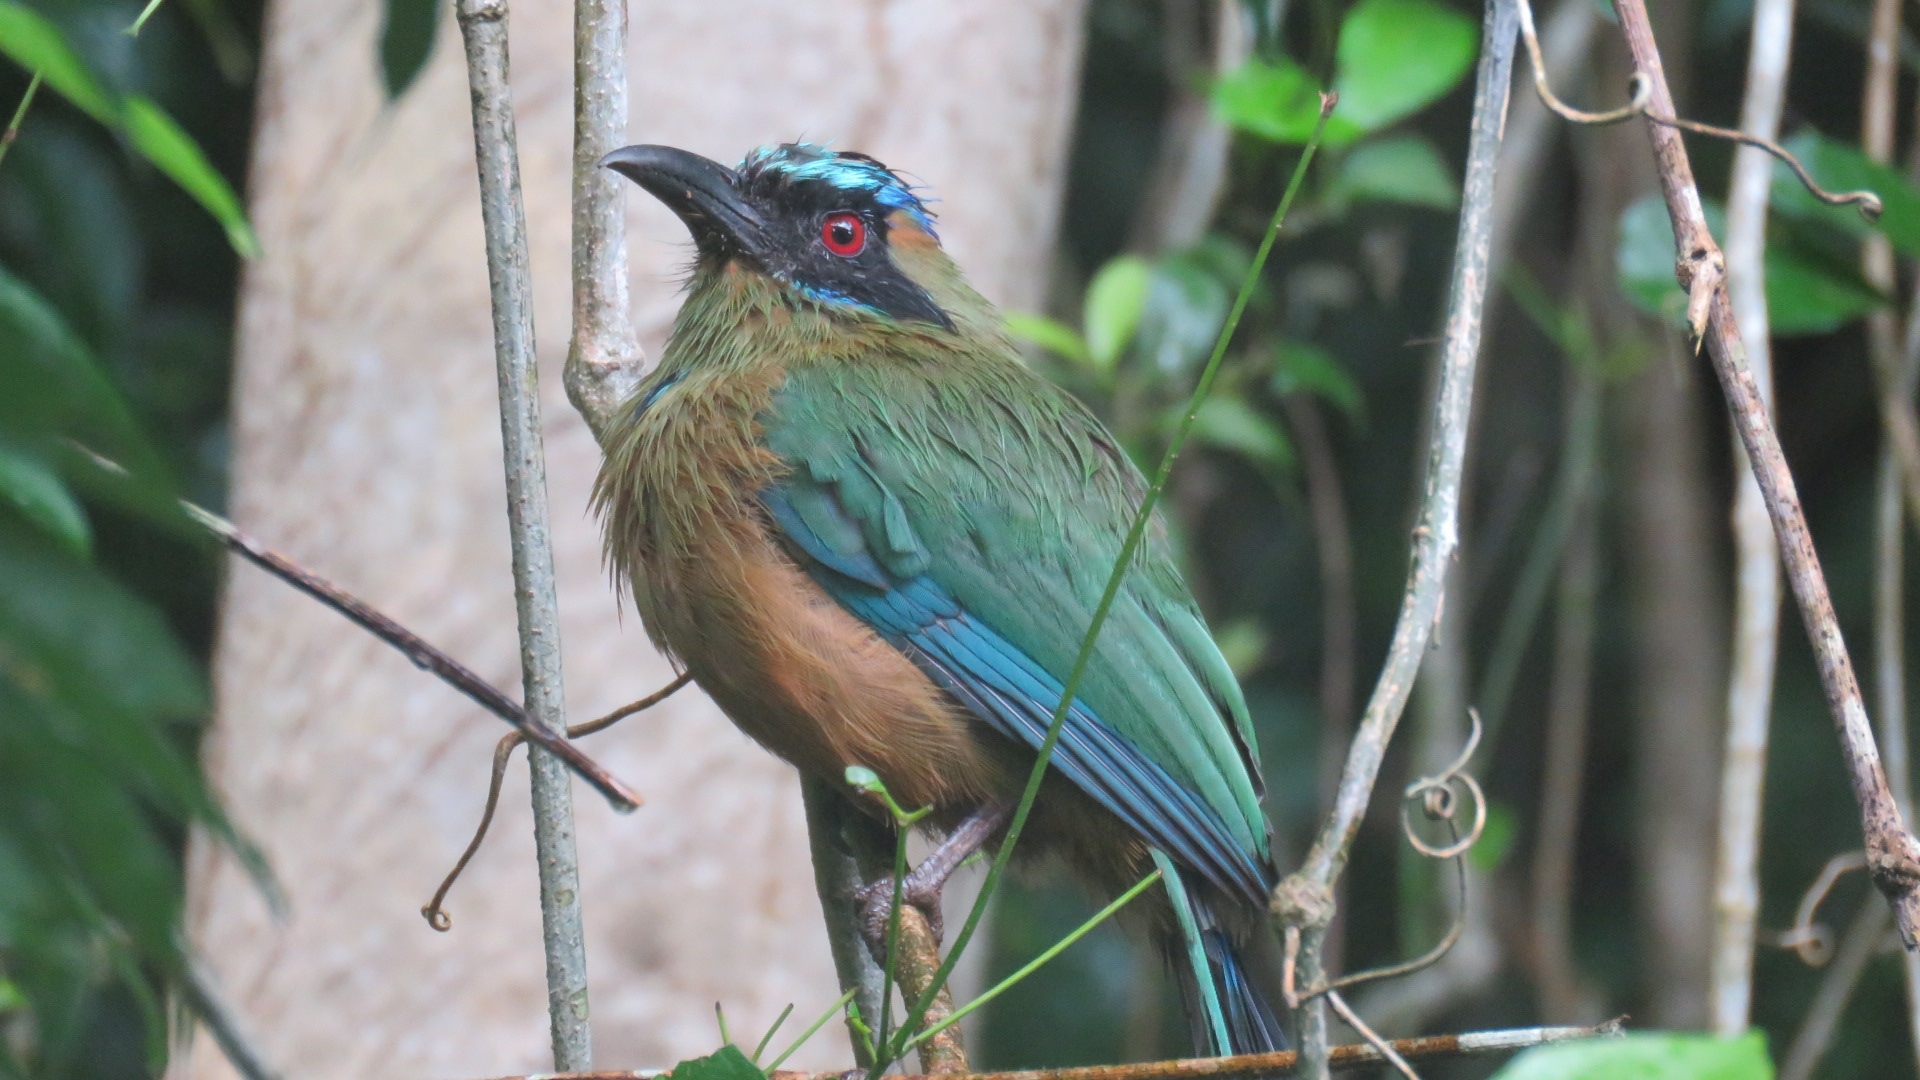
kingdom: Animalia
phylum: Chordata
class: Aves
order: Coraciiformes
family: Momotidae
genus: Momotus
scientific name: Momotus subrufescens
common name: Whooping motmot
